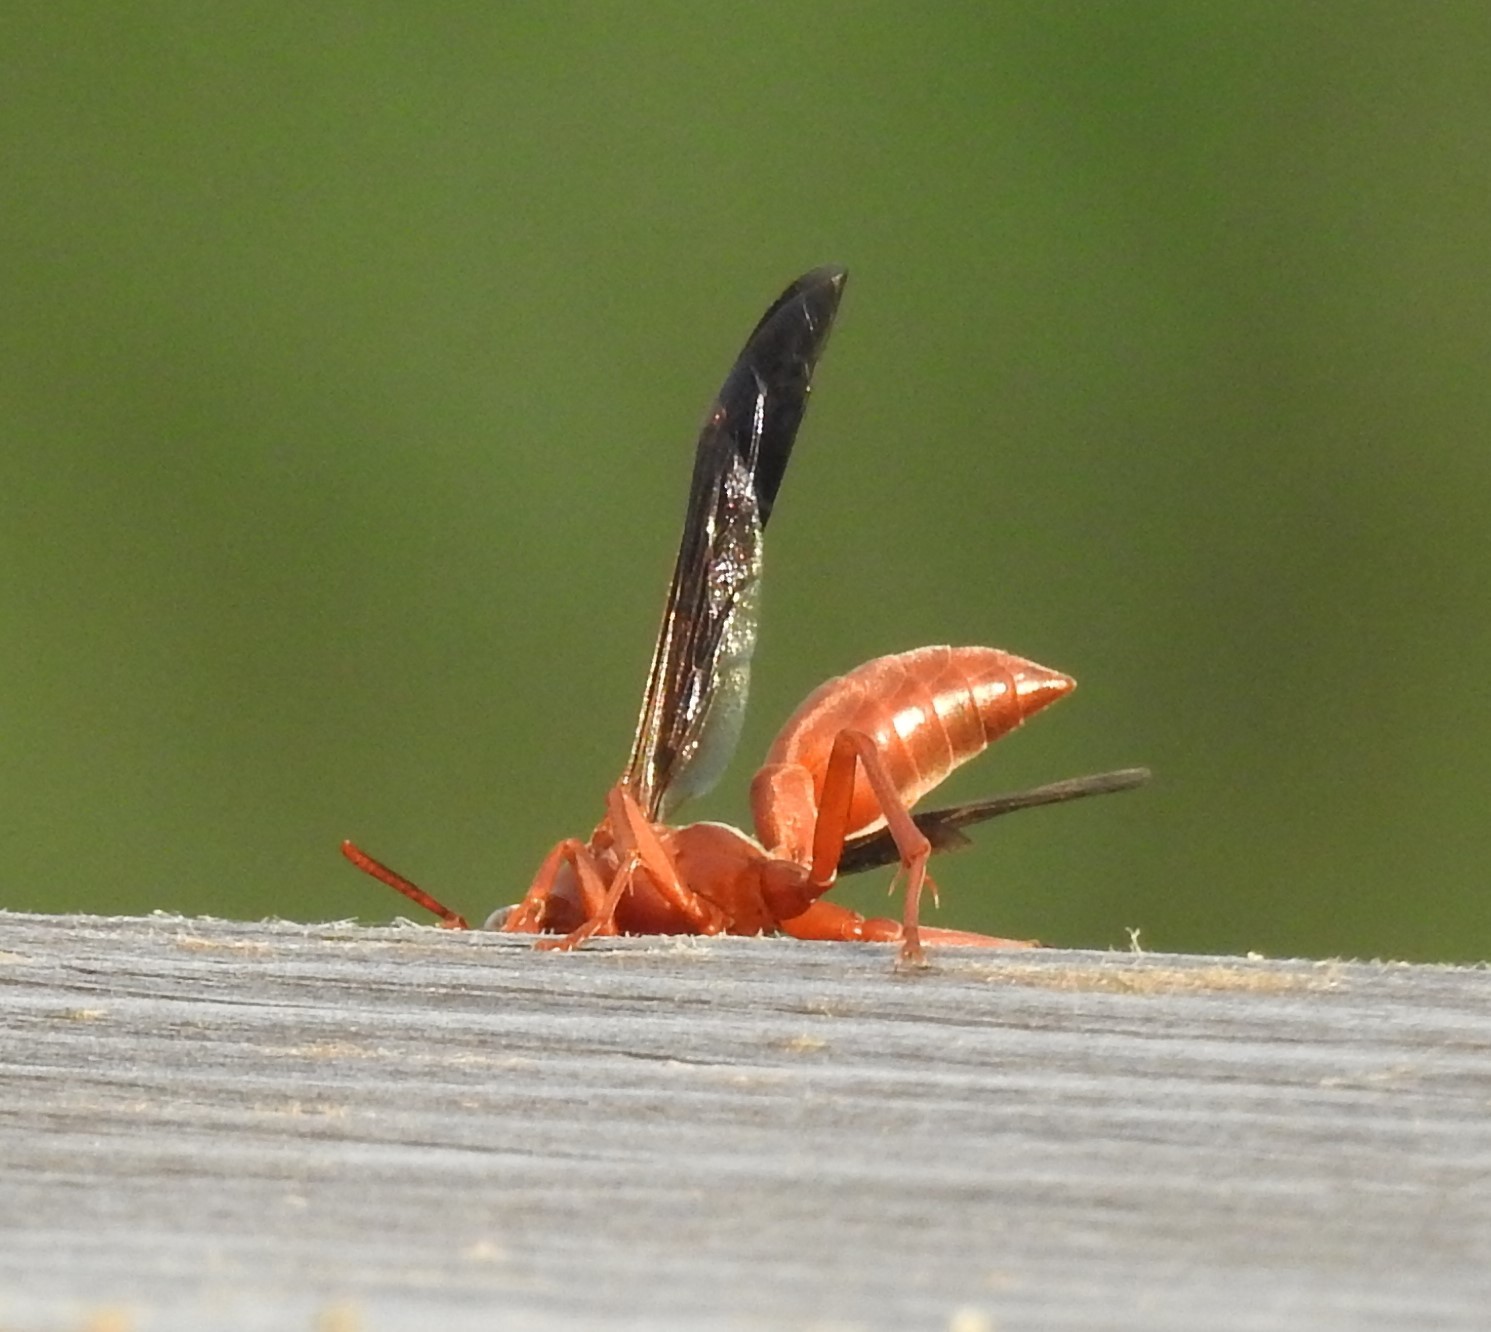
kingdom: Animalia
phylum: Arthropoda
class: Insecta
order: Hymenoptera
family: Vespidae
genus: Fuscopolistes
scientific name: Fuscopolistes
